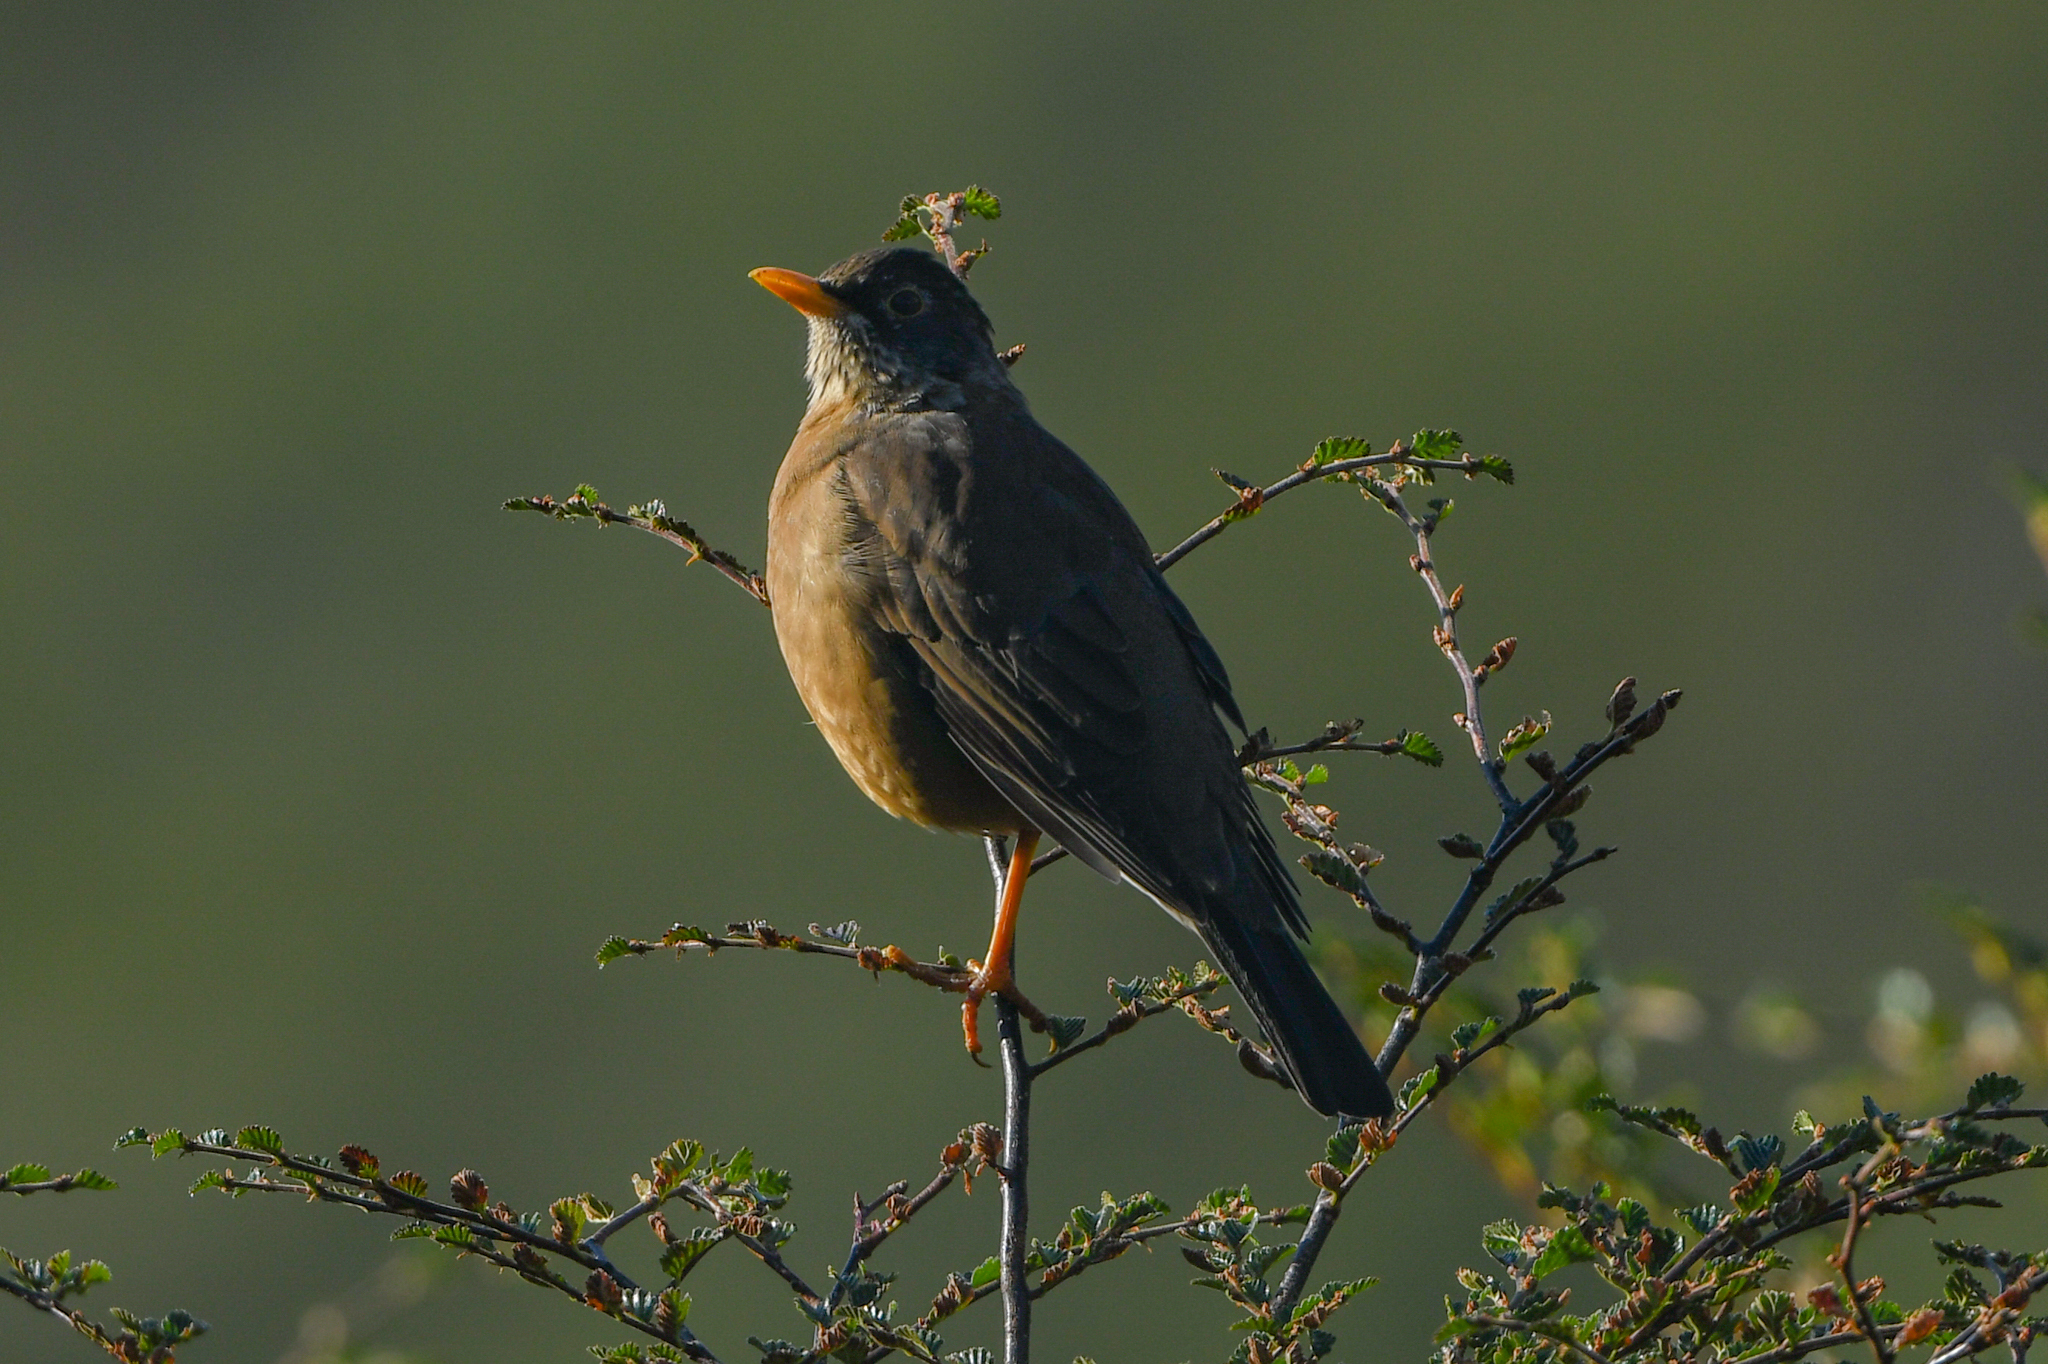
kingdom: Animalia
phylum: Chordata
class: Aves
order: Passeriformes
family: Turdidae
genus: Turdus
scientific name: Turdus falcklandii
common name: Austral thrush
